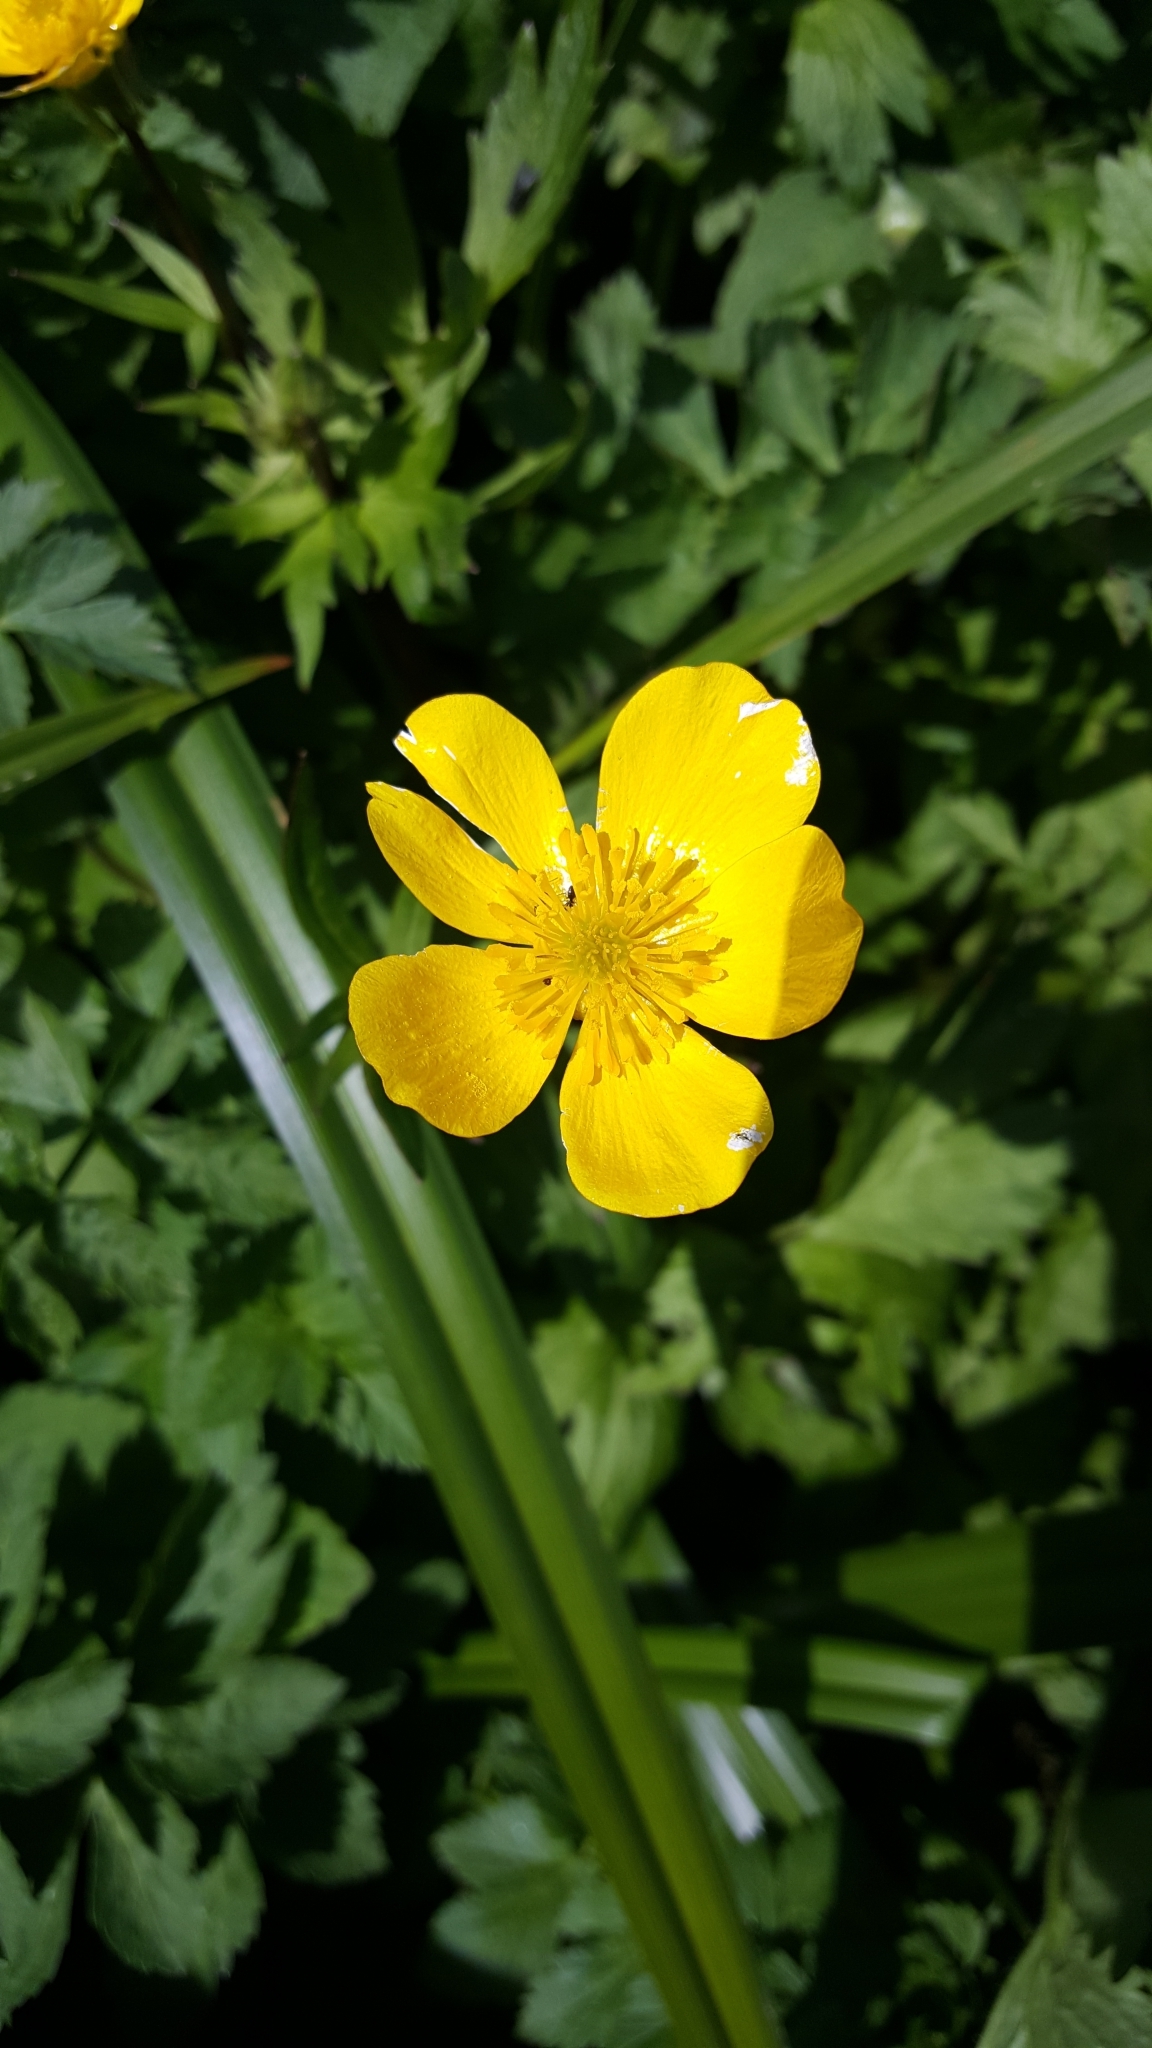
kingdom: Plantae
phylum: Tracheophyta
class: Magnoliopsida
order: Ranunculales
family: Ranunculaceae
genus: Ranunculus
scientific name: Ranunculus orthorhynchus
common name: Straight-beak buttercup
